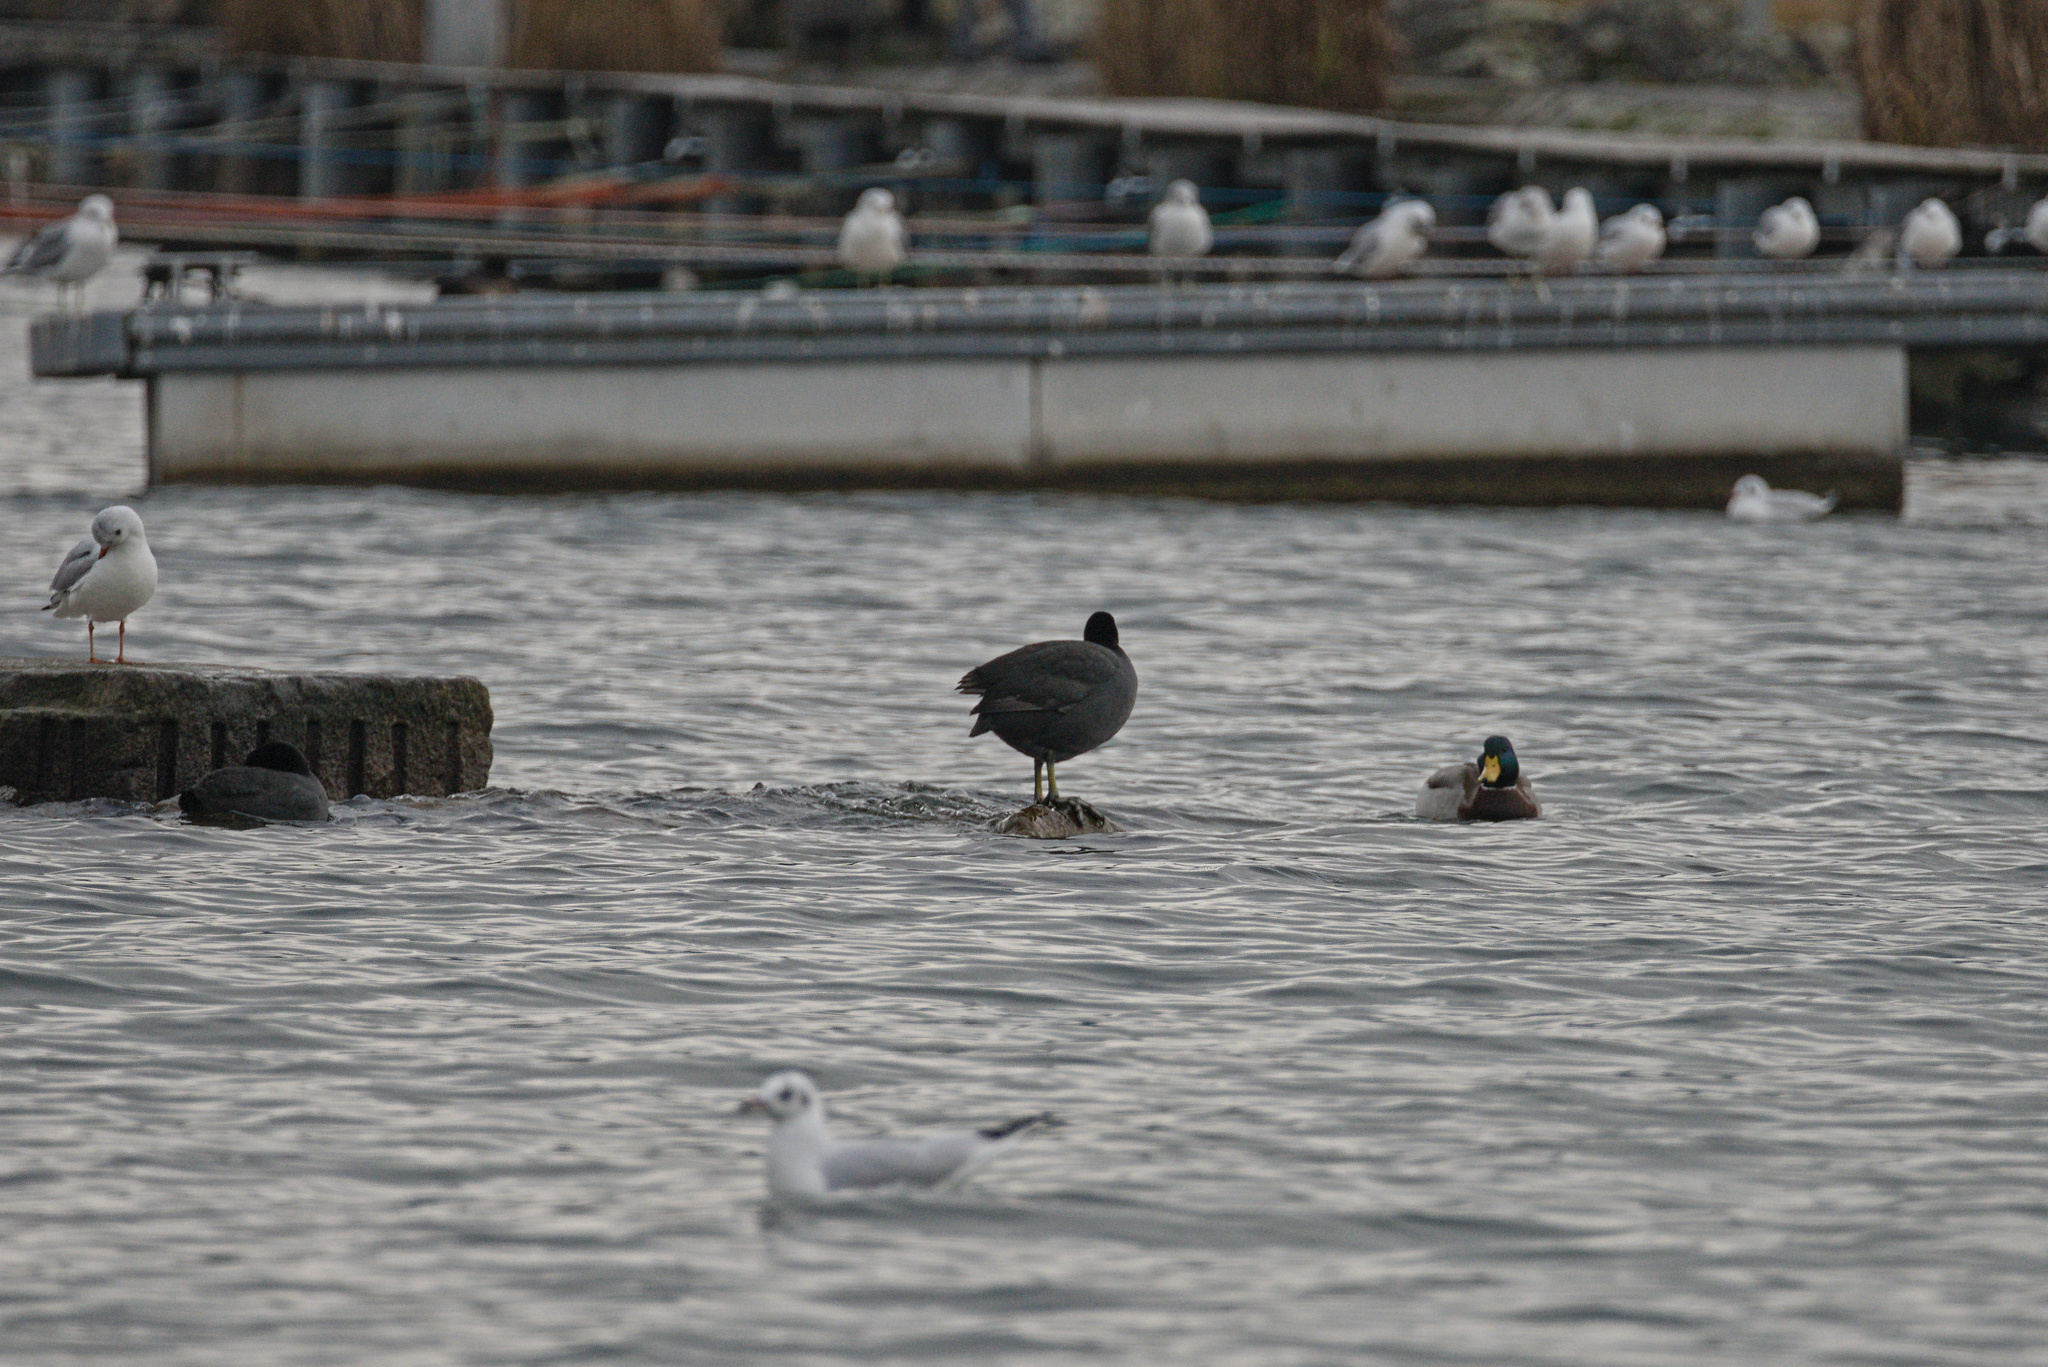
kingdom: Animalia
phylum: Chordata
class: Aves
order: Gruiformes
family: Rallidae
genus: Fulica
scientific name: Fulica atra
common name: Eurasian coot
